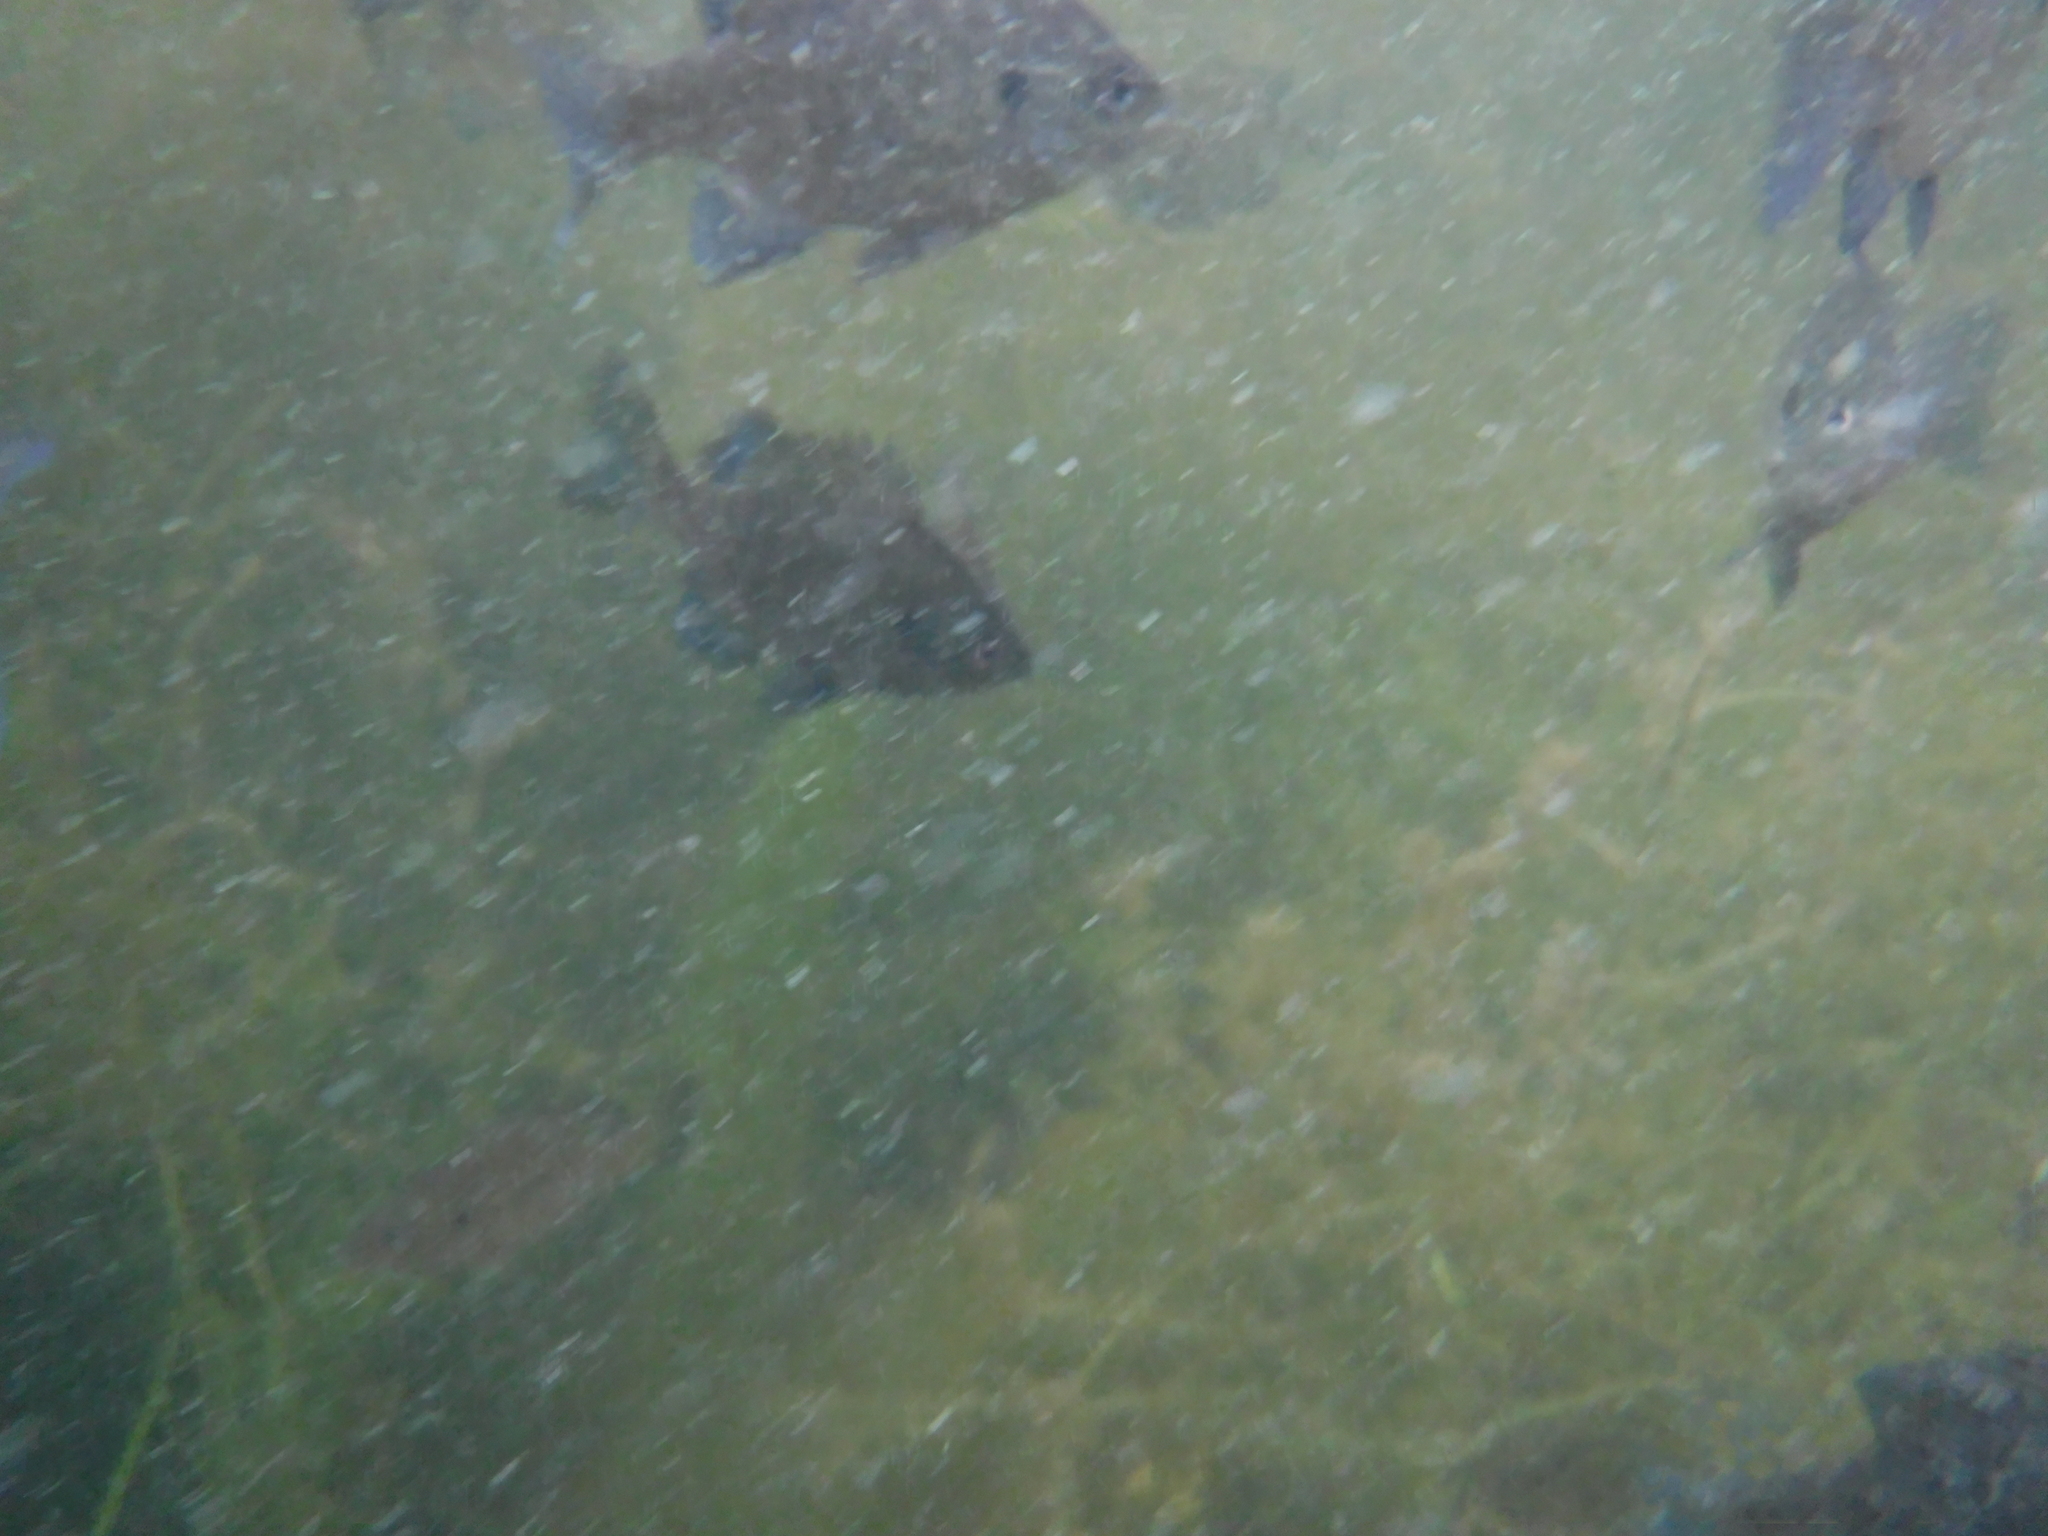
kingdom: Animalia
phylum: Chordata
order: Perciformes
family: Centrarchidae
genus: Lepomis
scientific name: Lepomis macrochirus
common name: Bluegill
